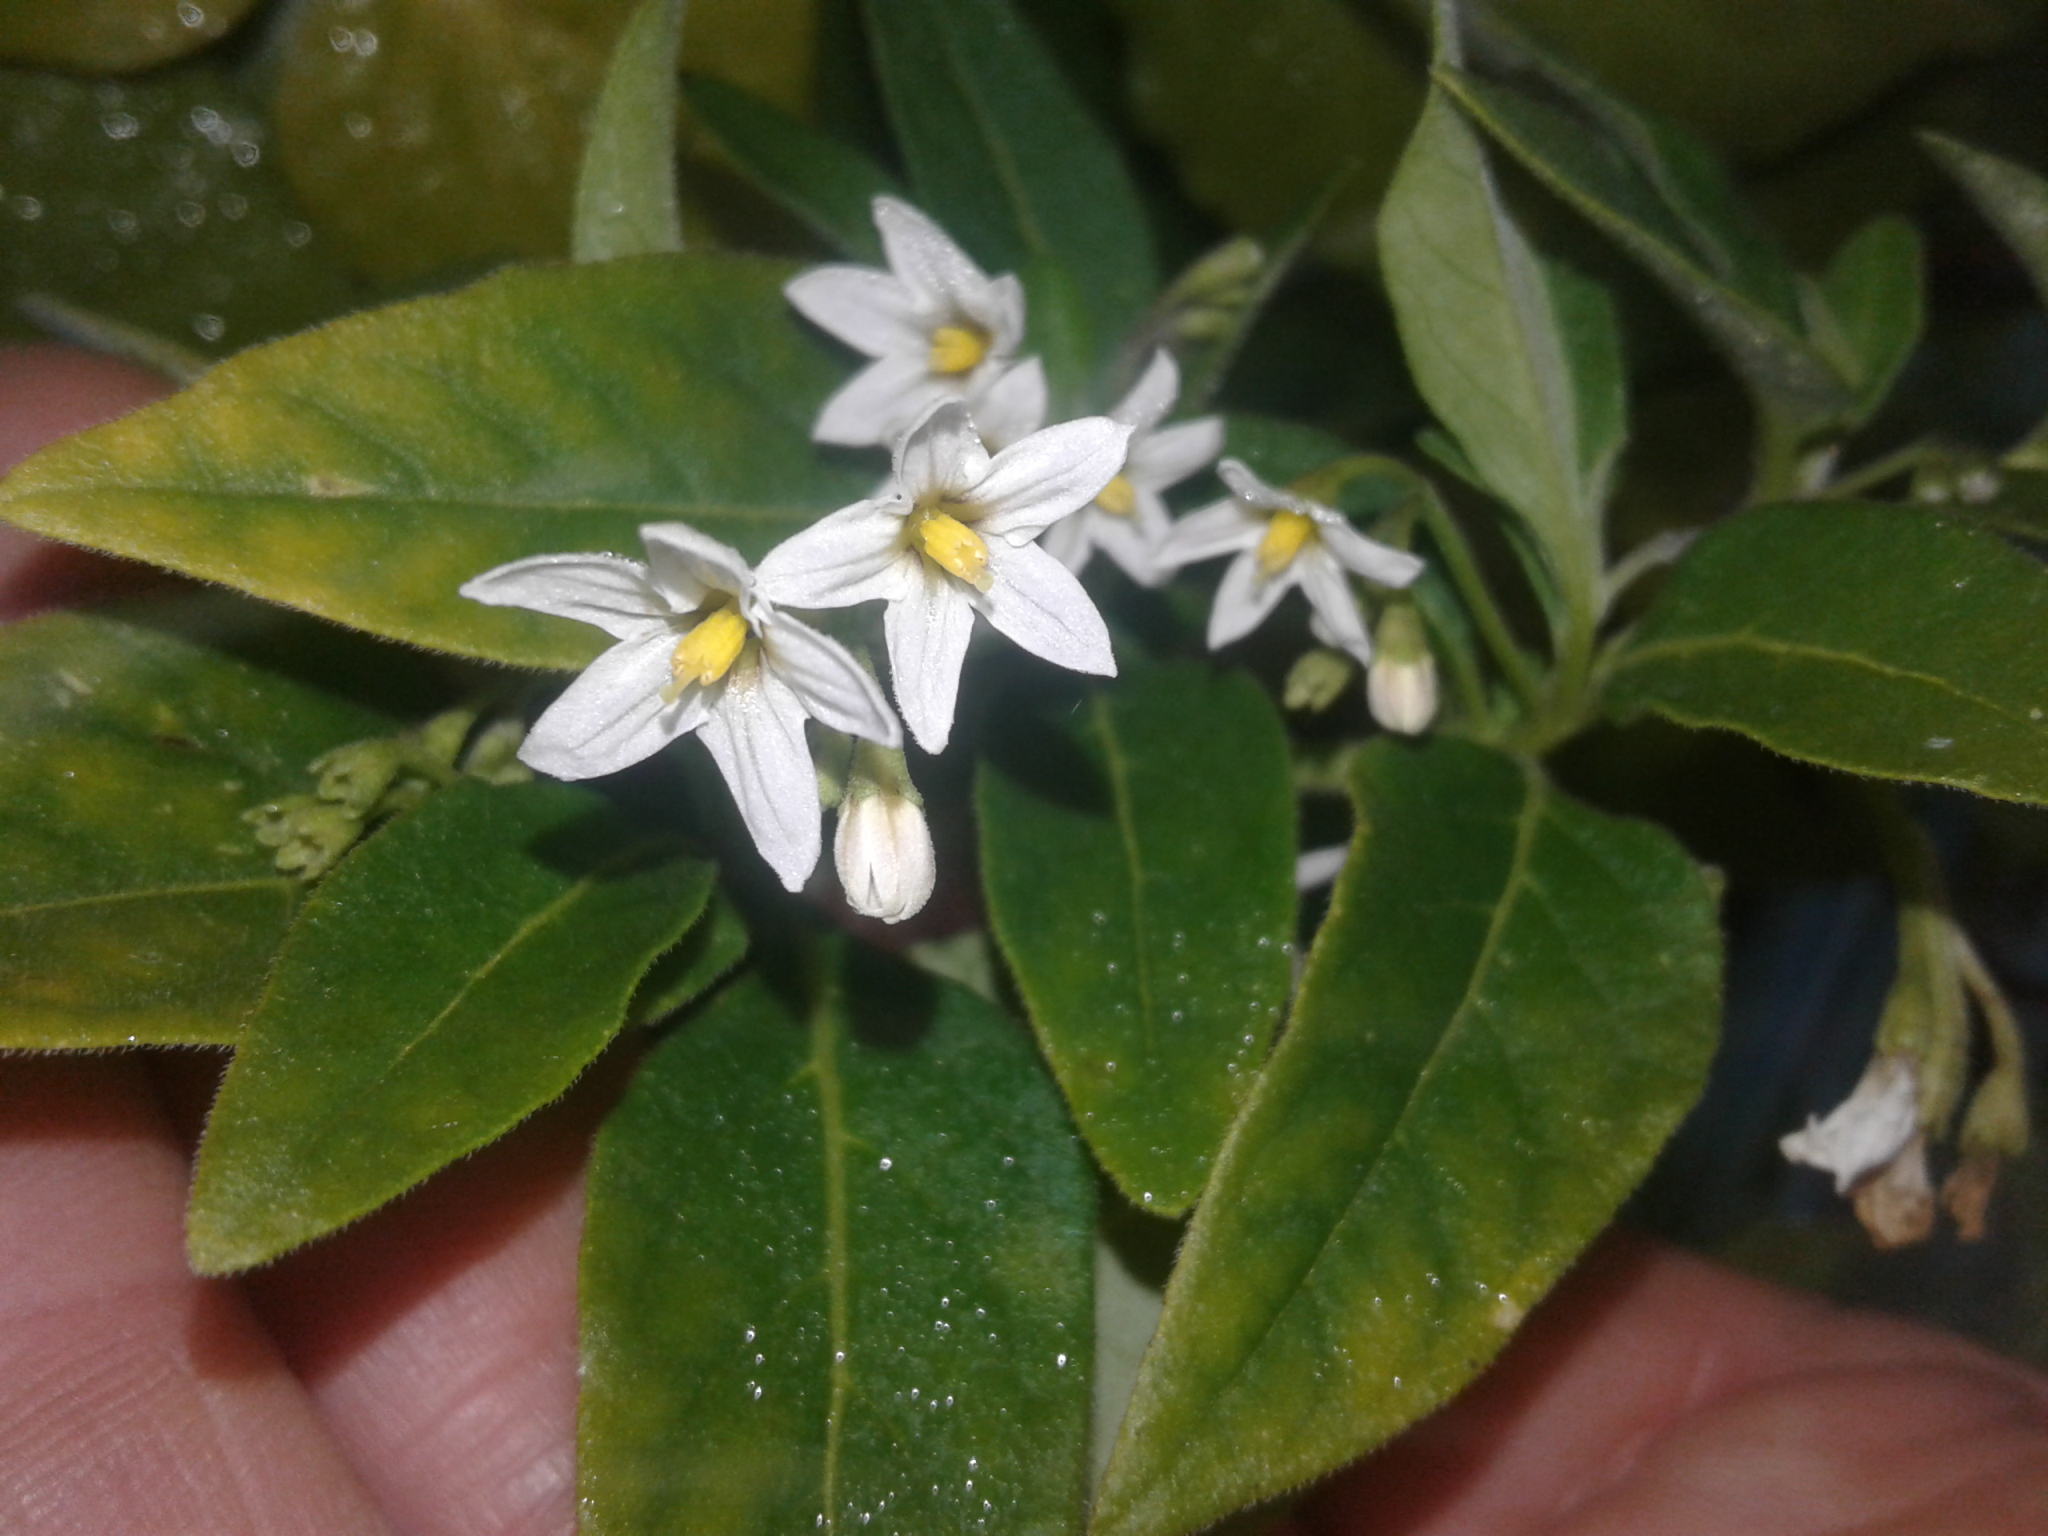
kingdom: Plantae
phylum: Tracheophyta
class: Magnoliopsida
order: Solanales
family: Solanaceae
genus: Solanum
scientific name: Solanum chenopodioides
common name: Tall nightshade
